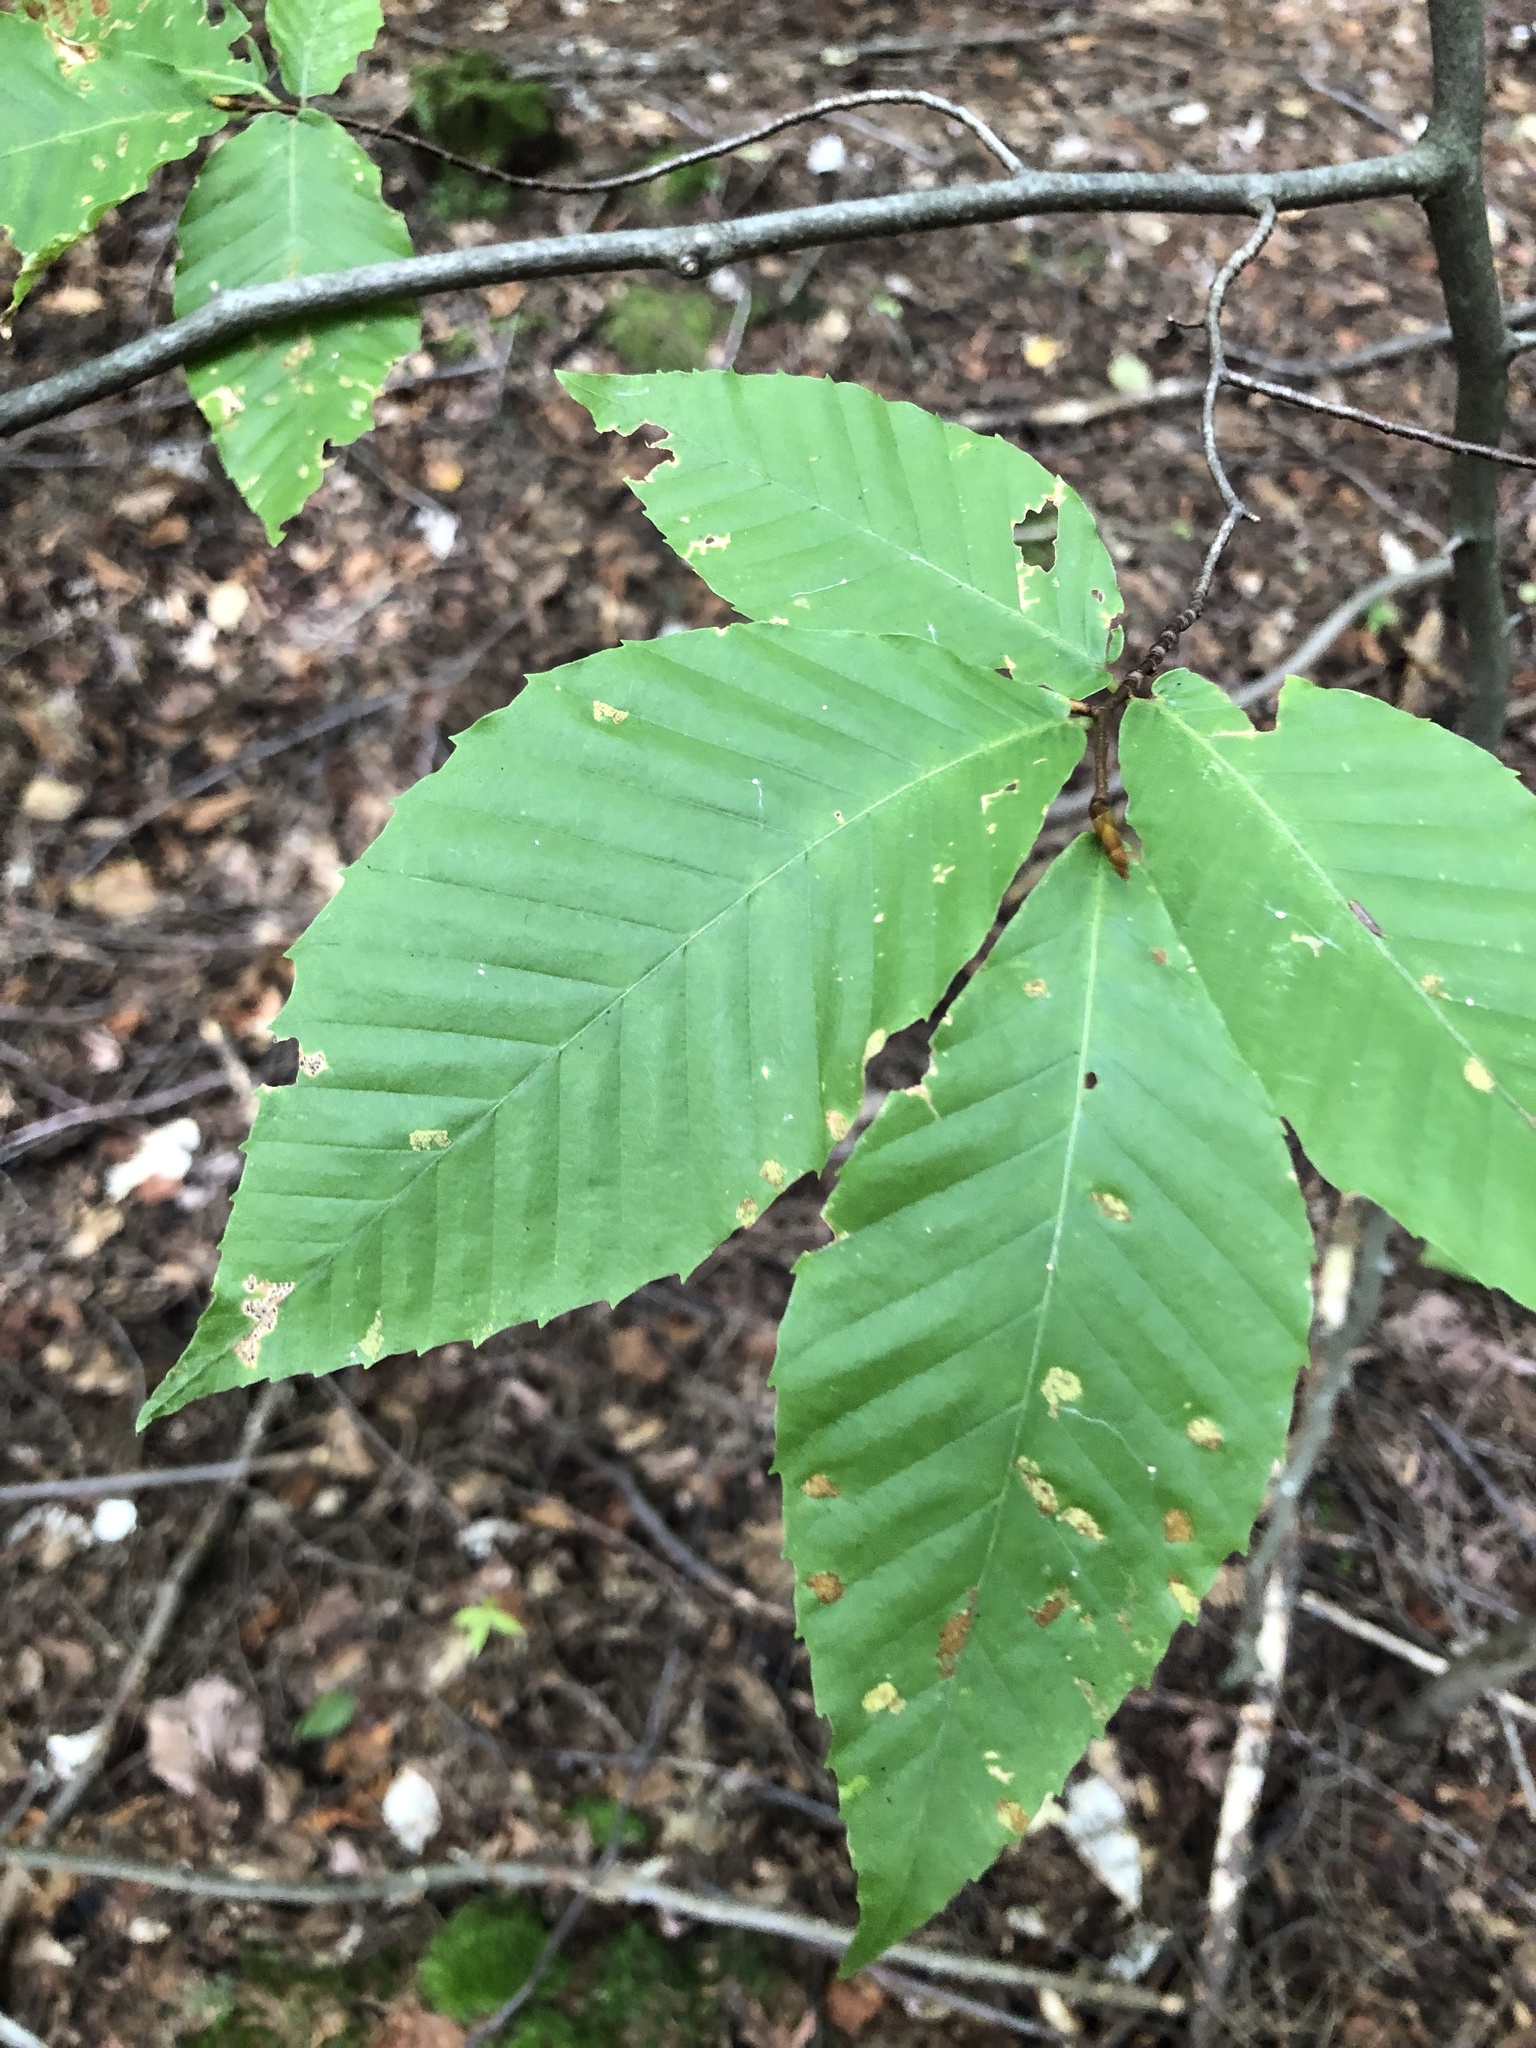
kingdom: Plantae
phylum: Tracheophyta
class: Magnoliopsida
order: Fagales
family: Fagaceae
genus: Fagus
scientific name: Fagus grandifolia
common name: American beech
